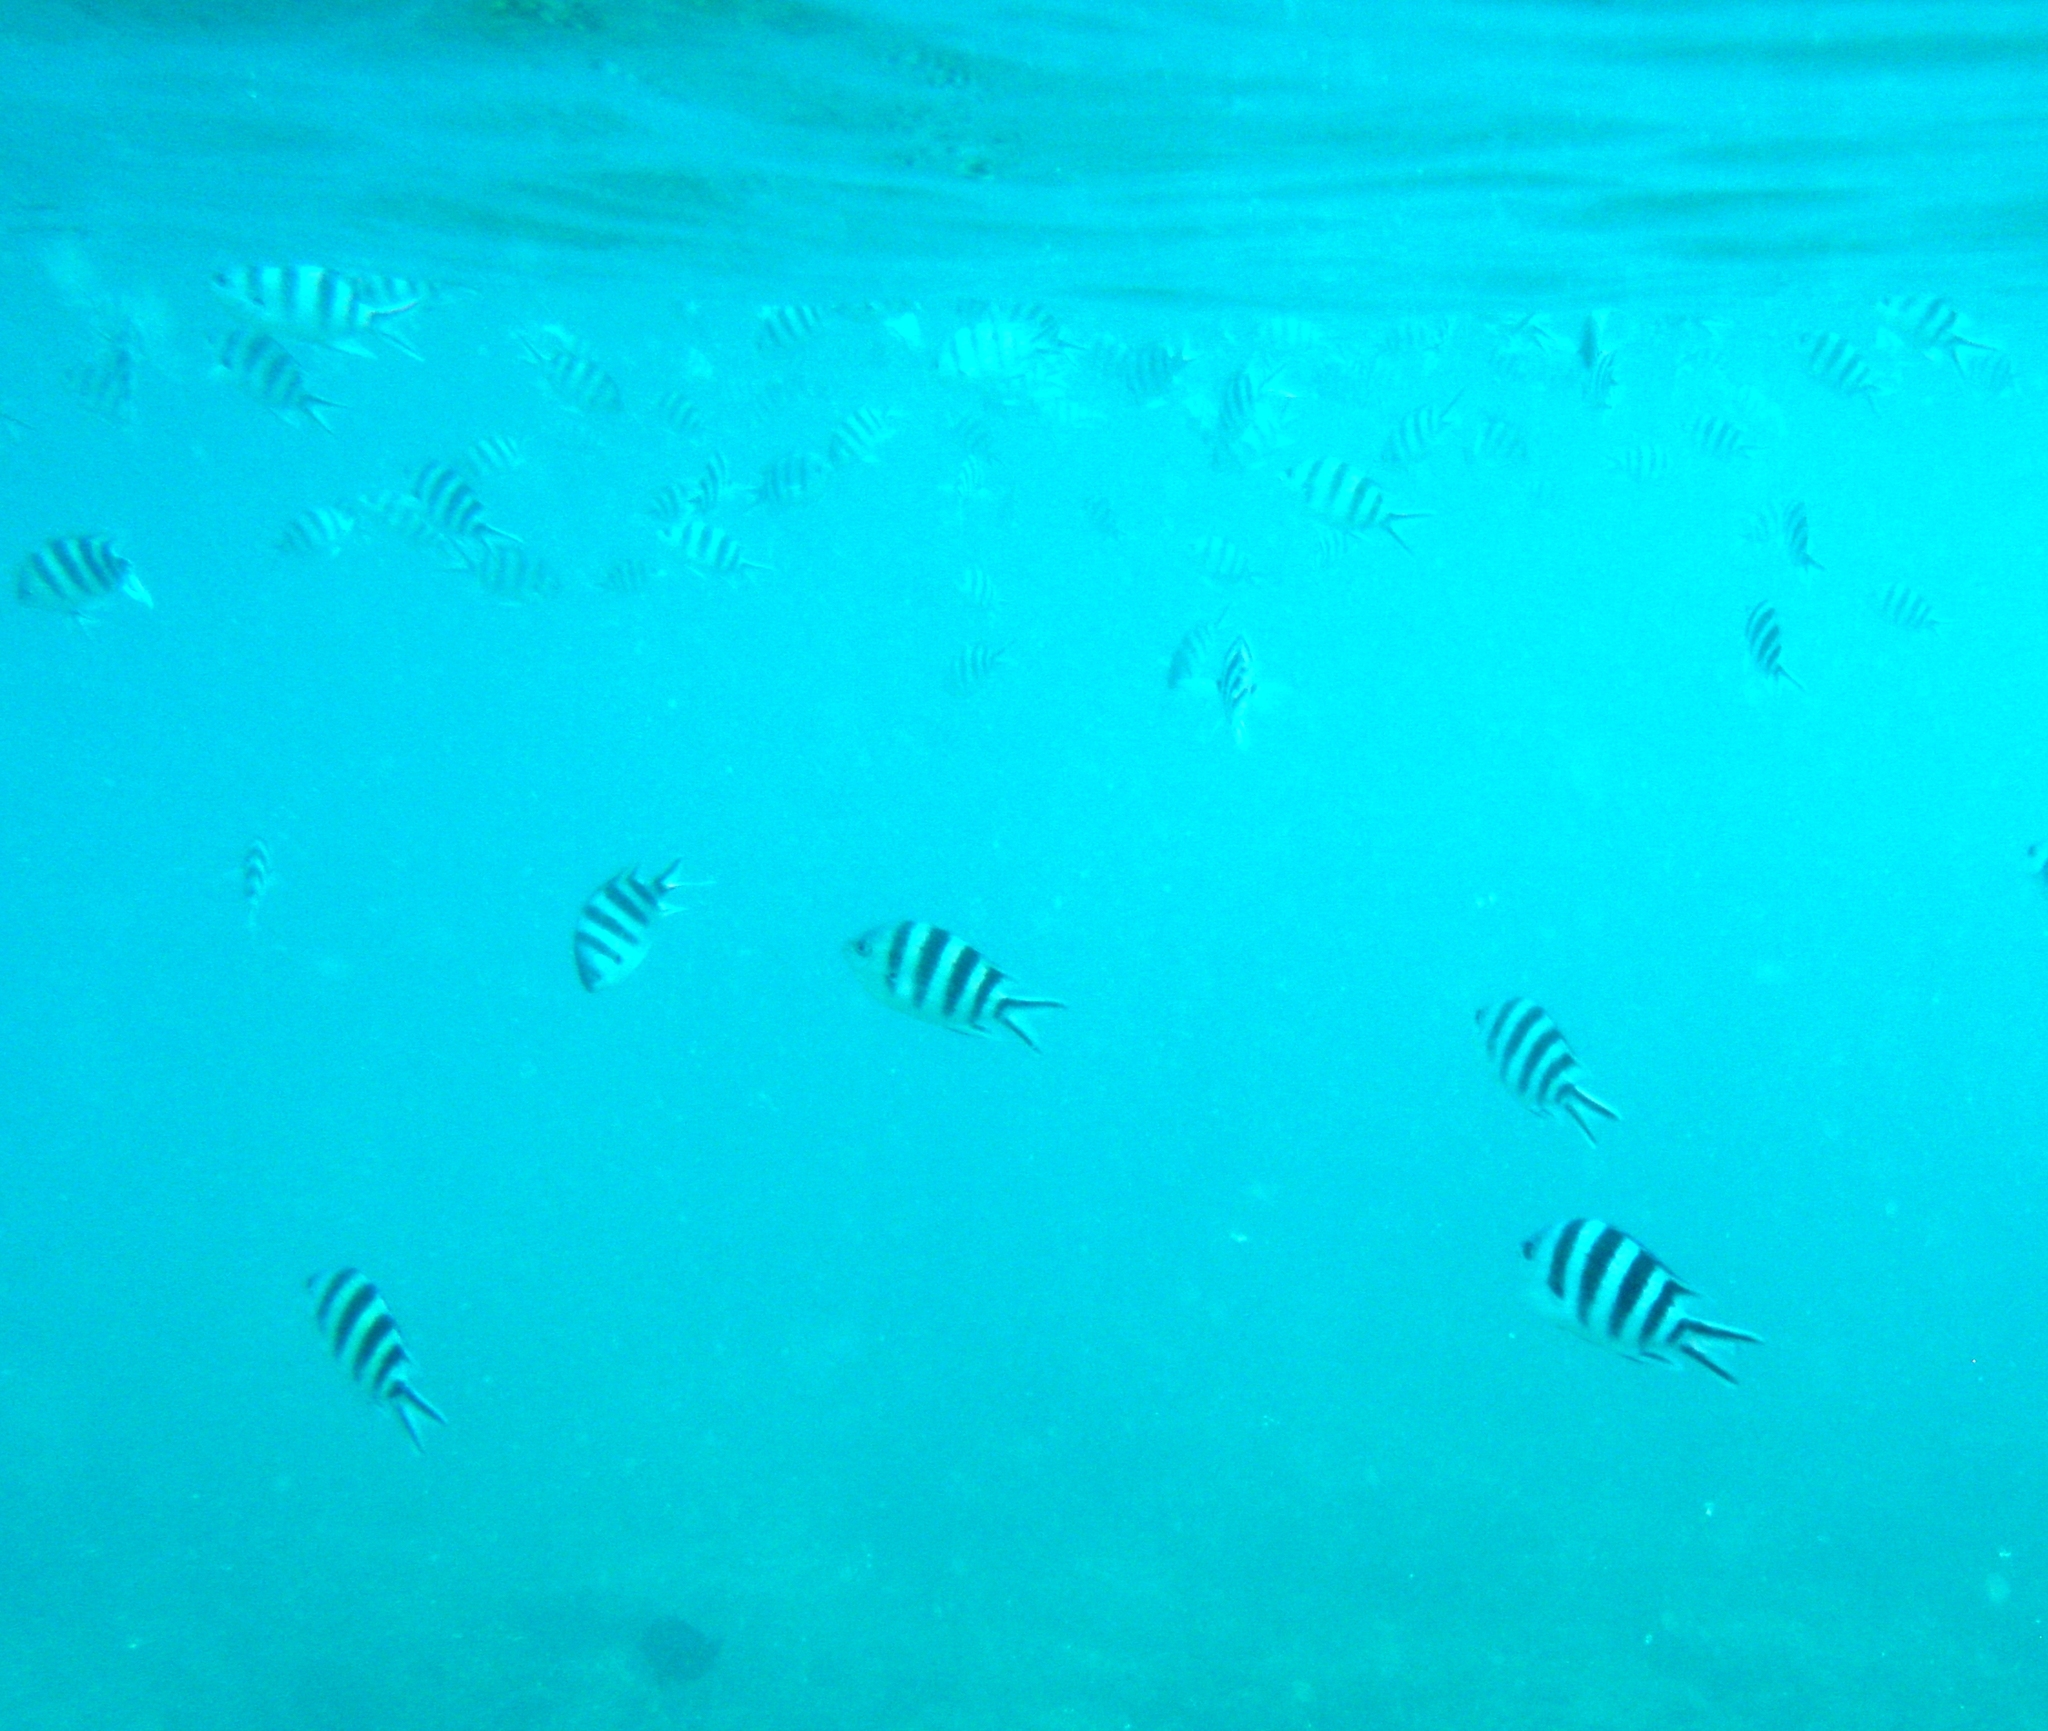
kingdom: Animalia
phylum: Chordata
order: Perciformes
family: Pomacentridae
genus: Abudefduf
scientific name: Abudefduf sexfasciatus
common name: Scissortail sergeant
